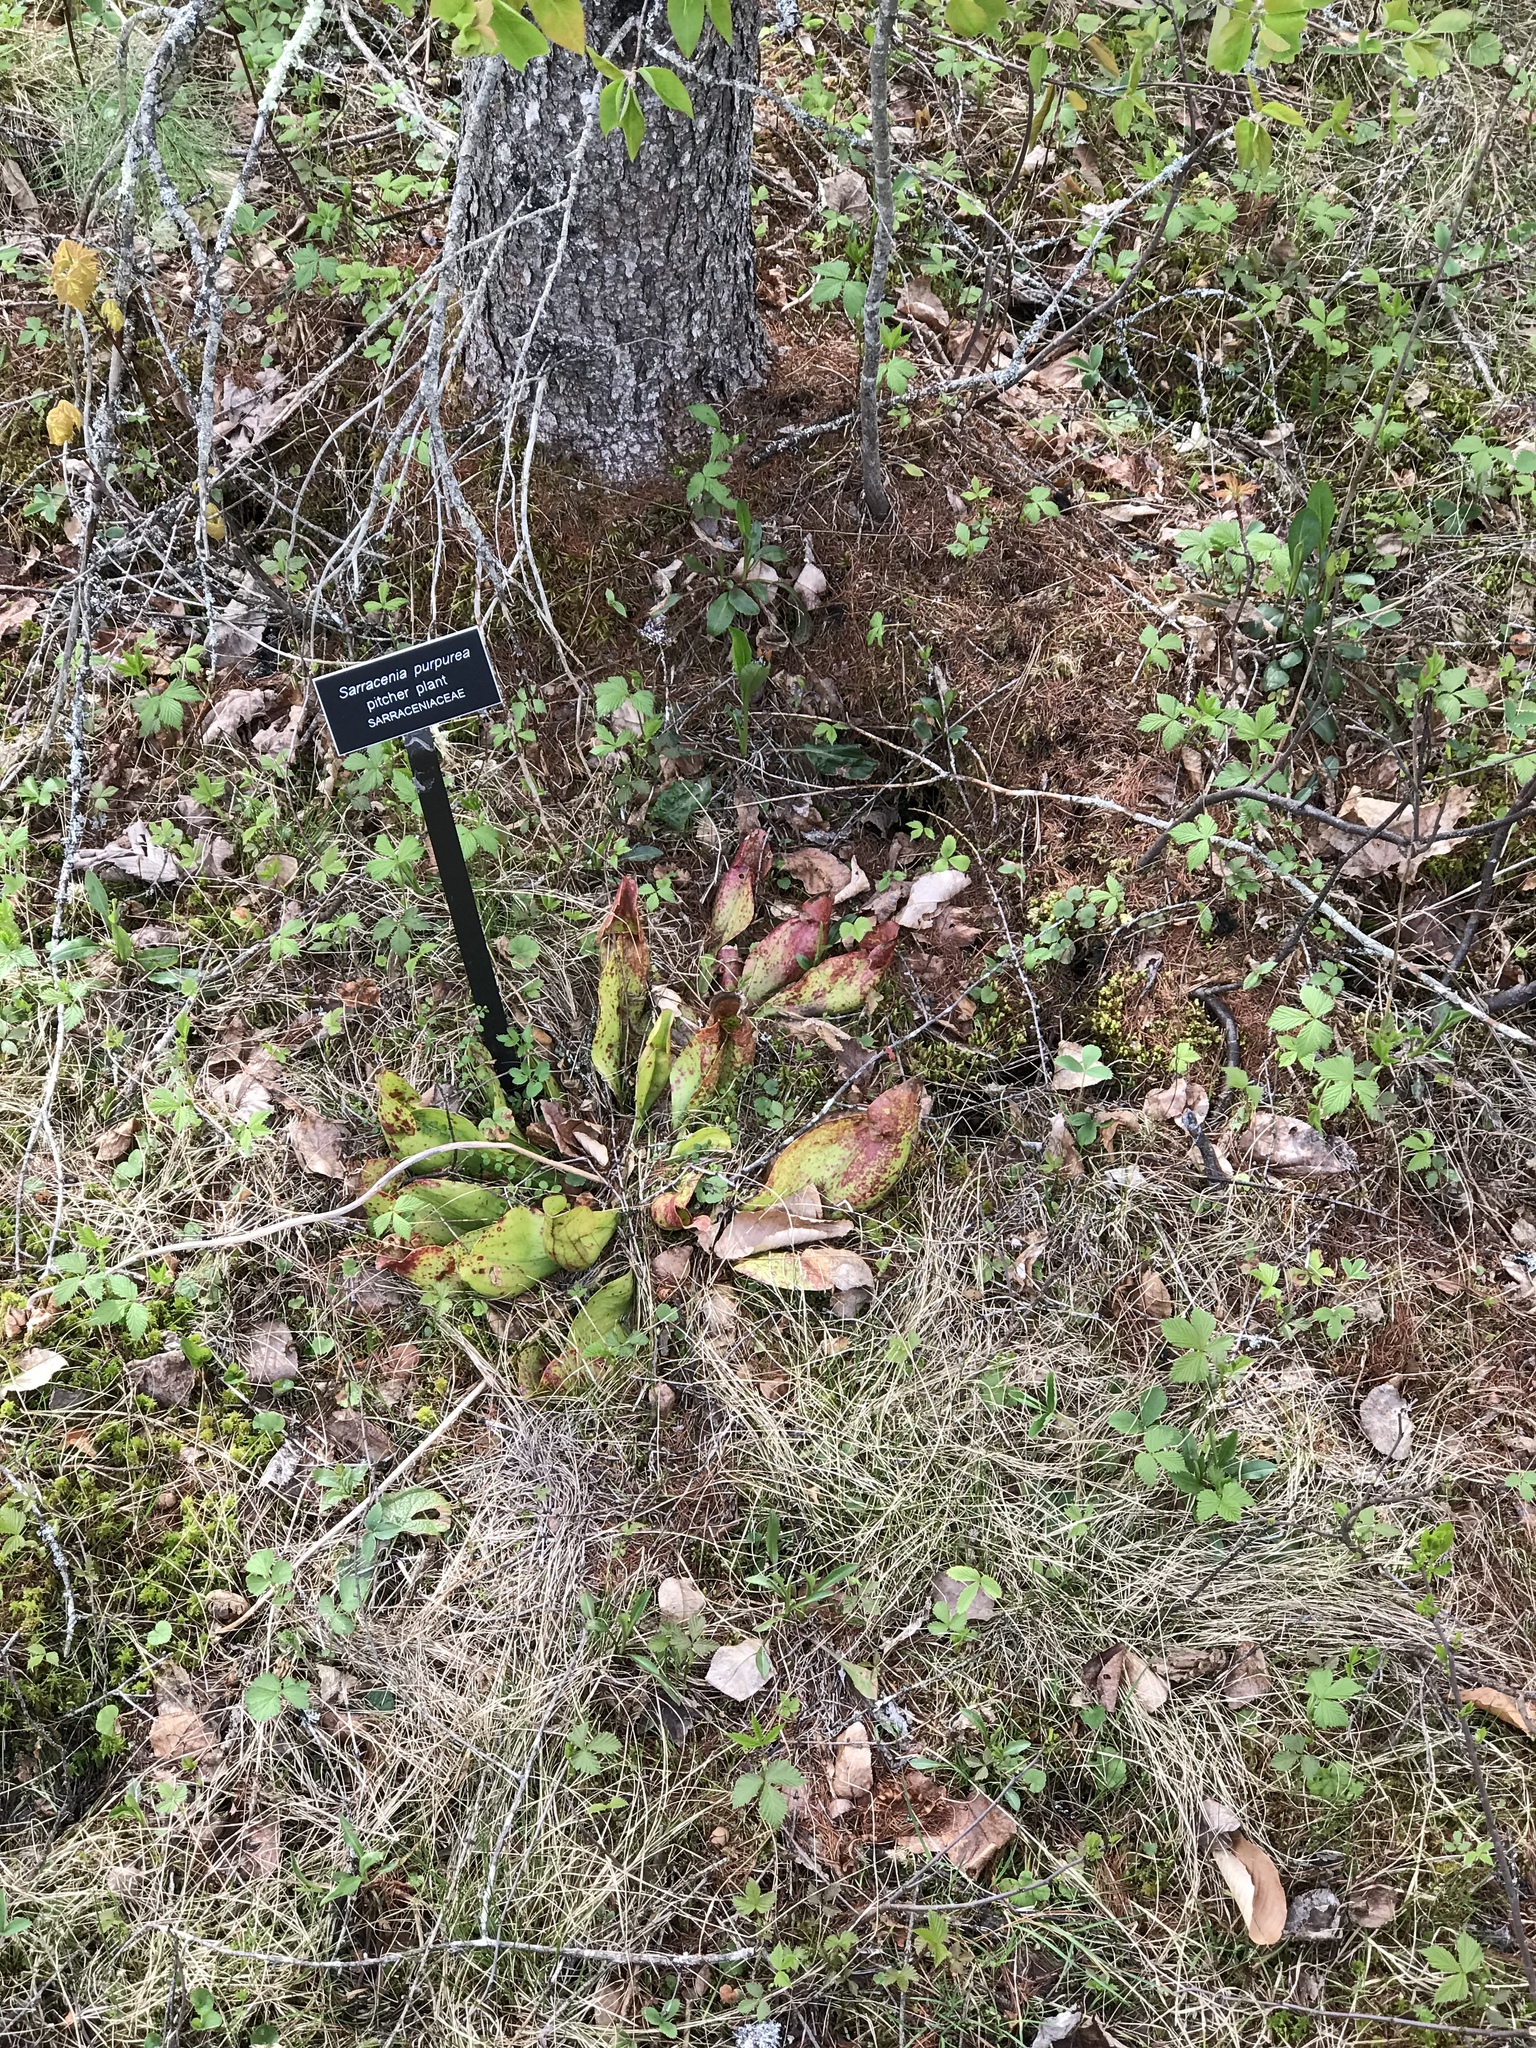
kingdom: Plantae
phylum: Tracheophyta
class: Magnoliopsida
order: Ericales
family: Sarraceniaceae
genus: Sarracenia
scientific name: Sarracenia purpurea
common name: Pitcherplant
